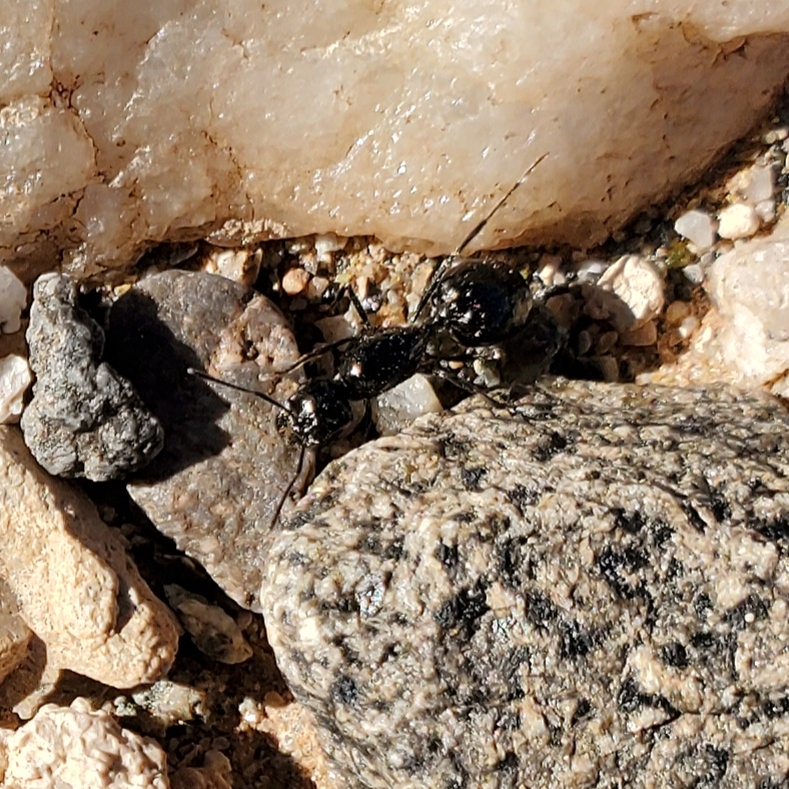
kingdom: Animalia
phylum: Arthropoda
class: Insecta
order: Hymenoptera
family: Formicidae
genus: Messor
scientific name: Messor pergandei
